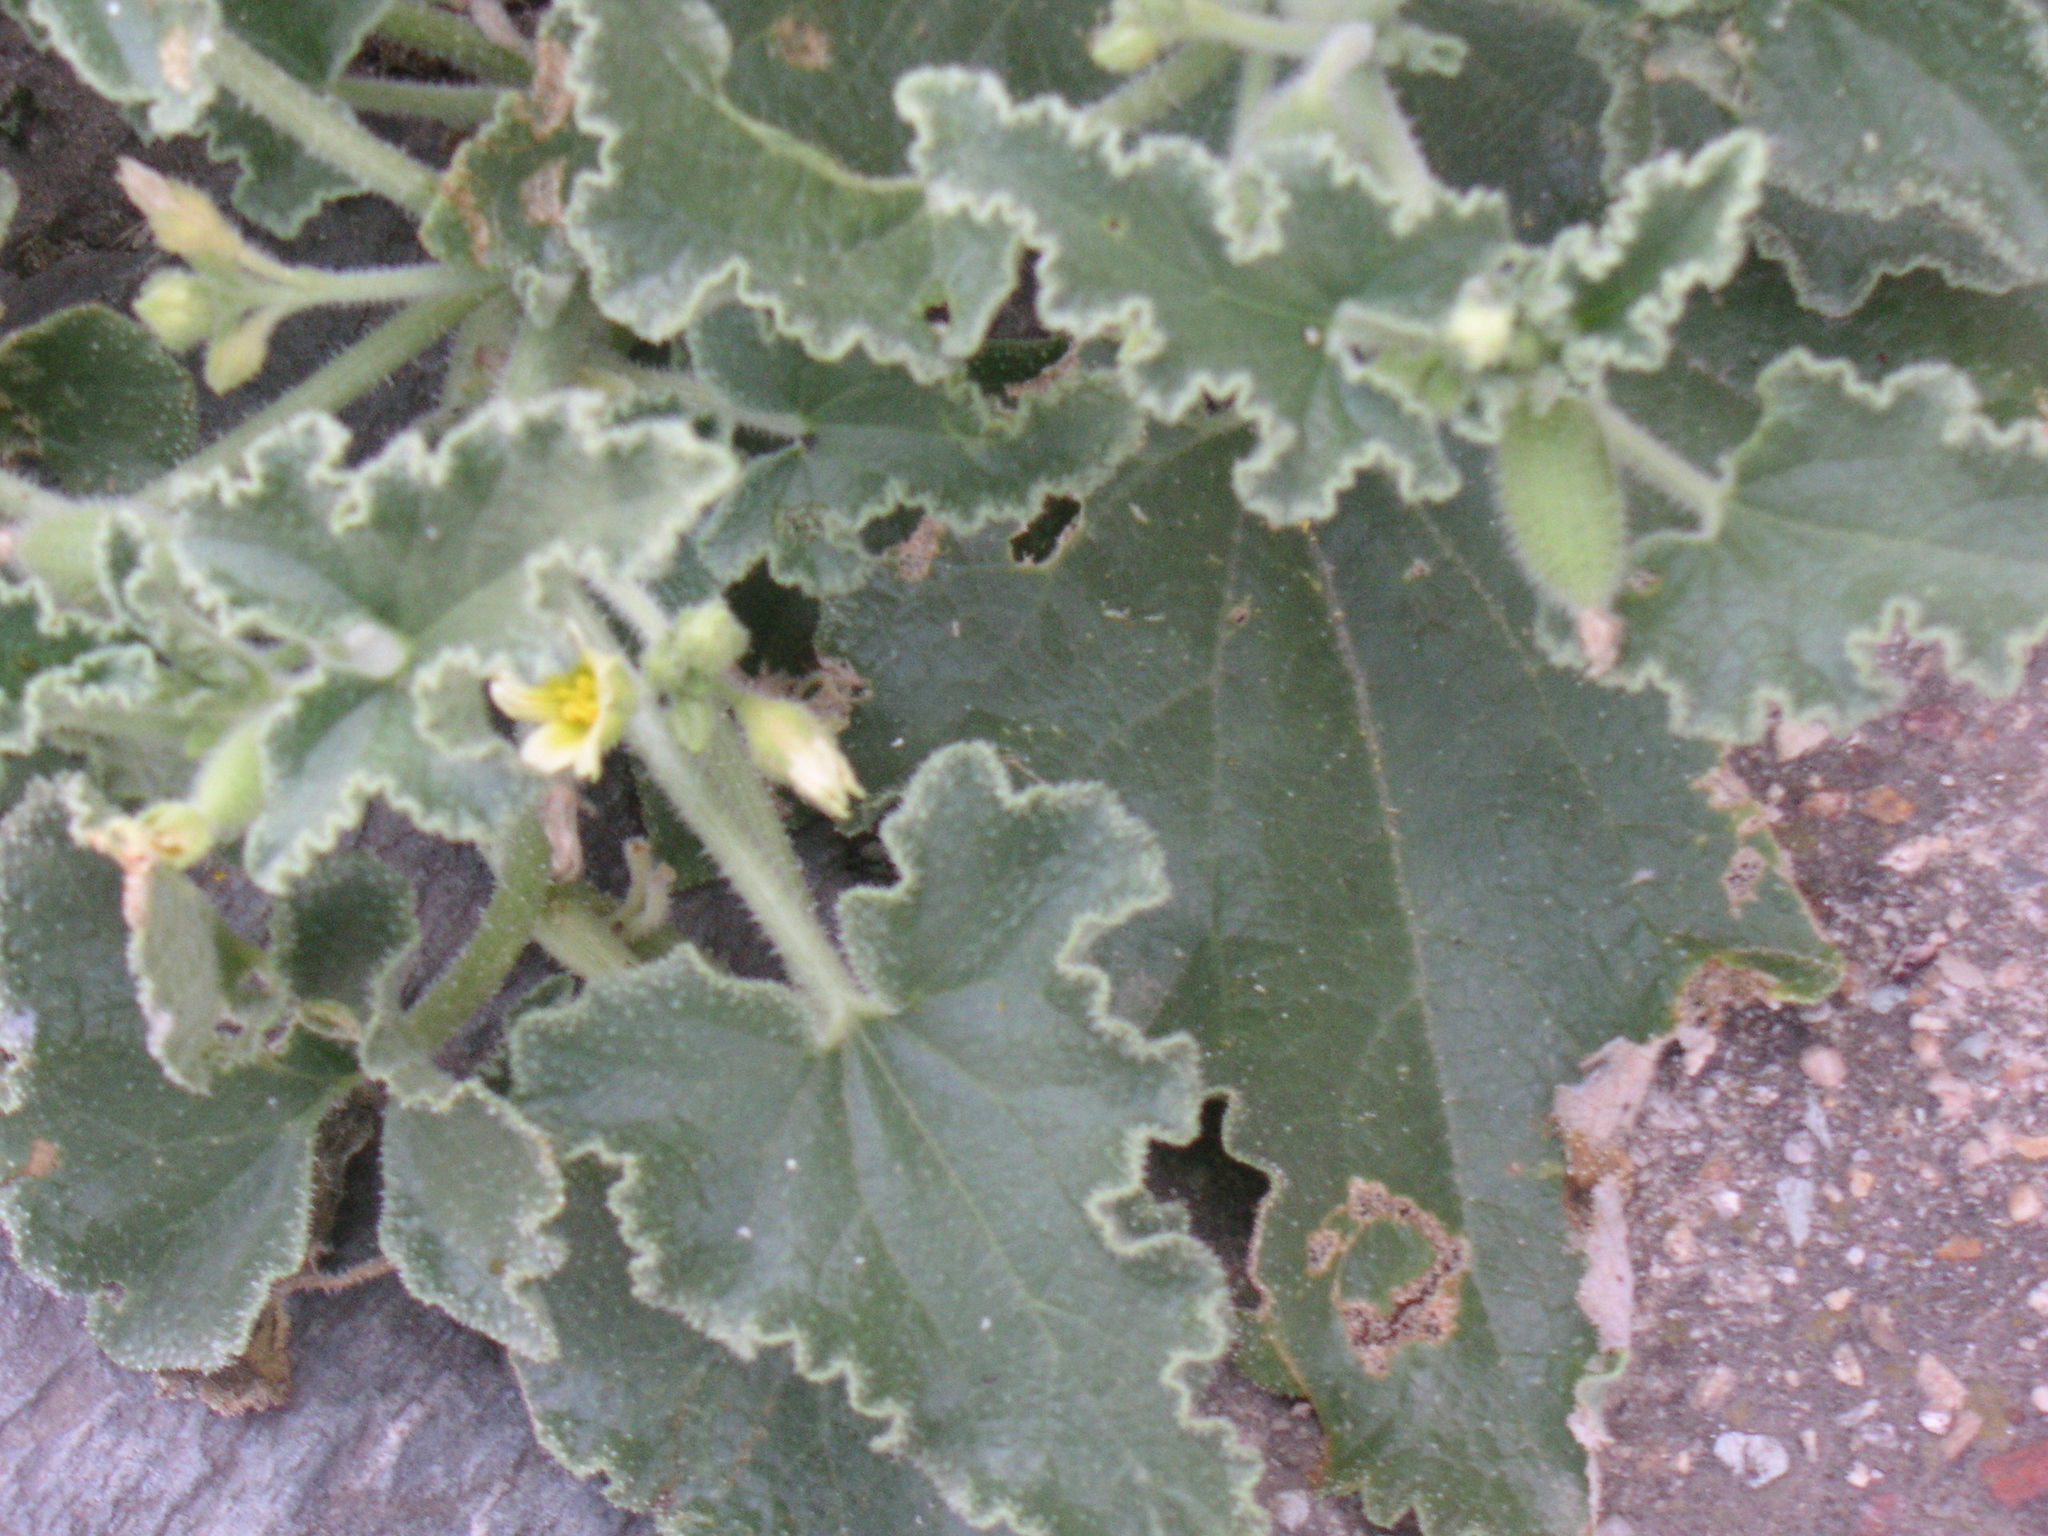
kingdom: Plantae
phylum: Tracheophyta
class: Magnoliopsida
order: Cucurbitales
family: Cucurbitaceae
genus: Ecballium
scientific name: Ecballium elaterium
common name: Squirting cucumber
